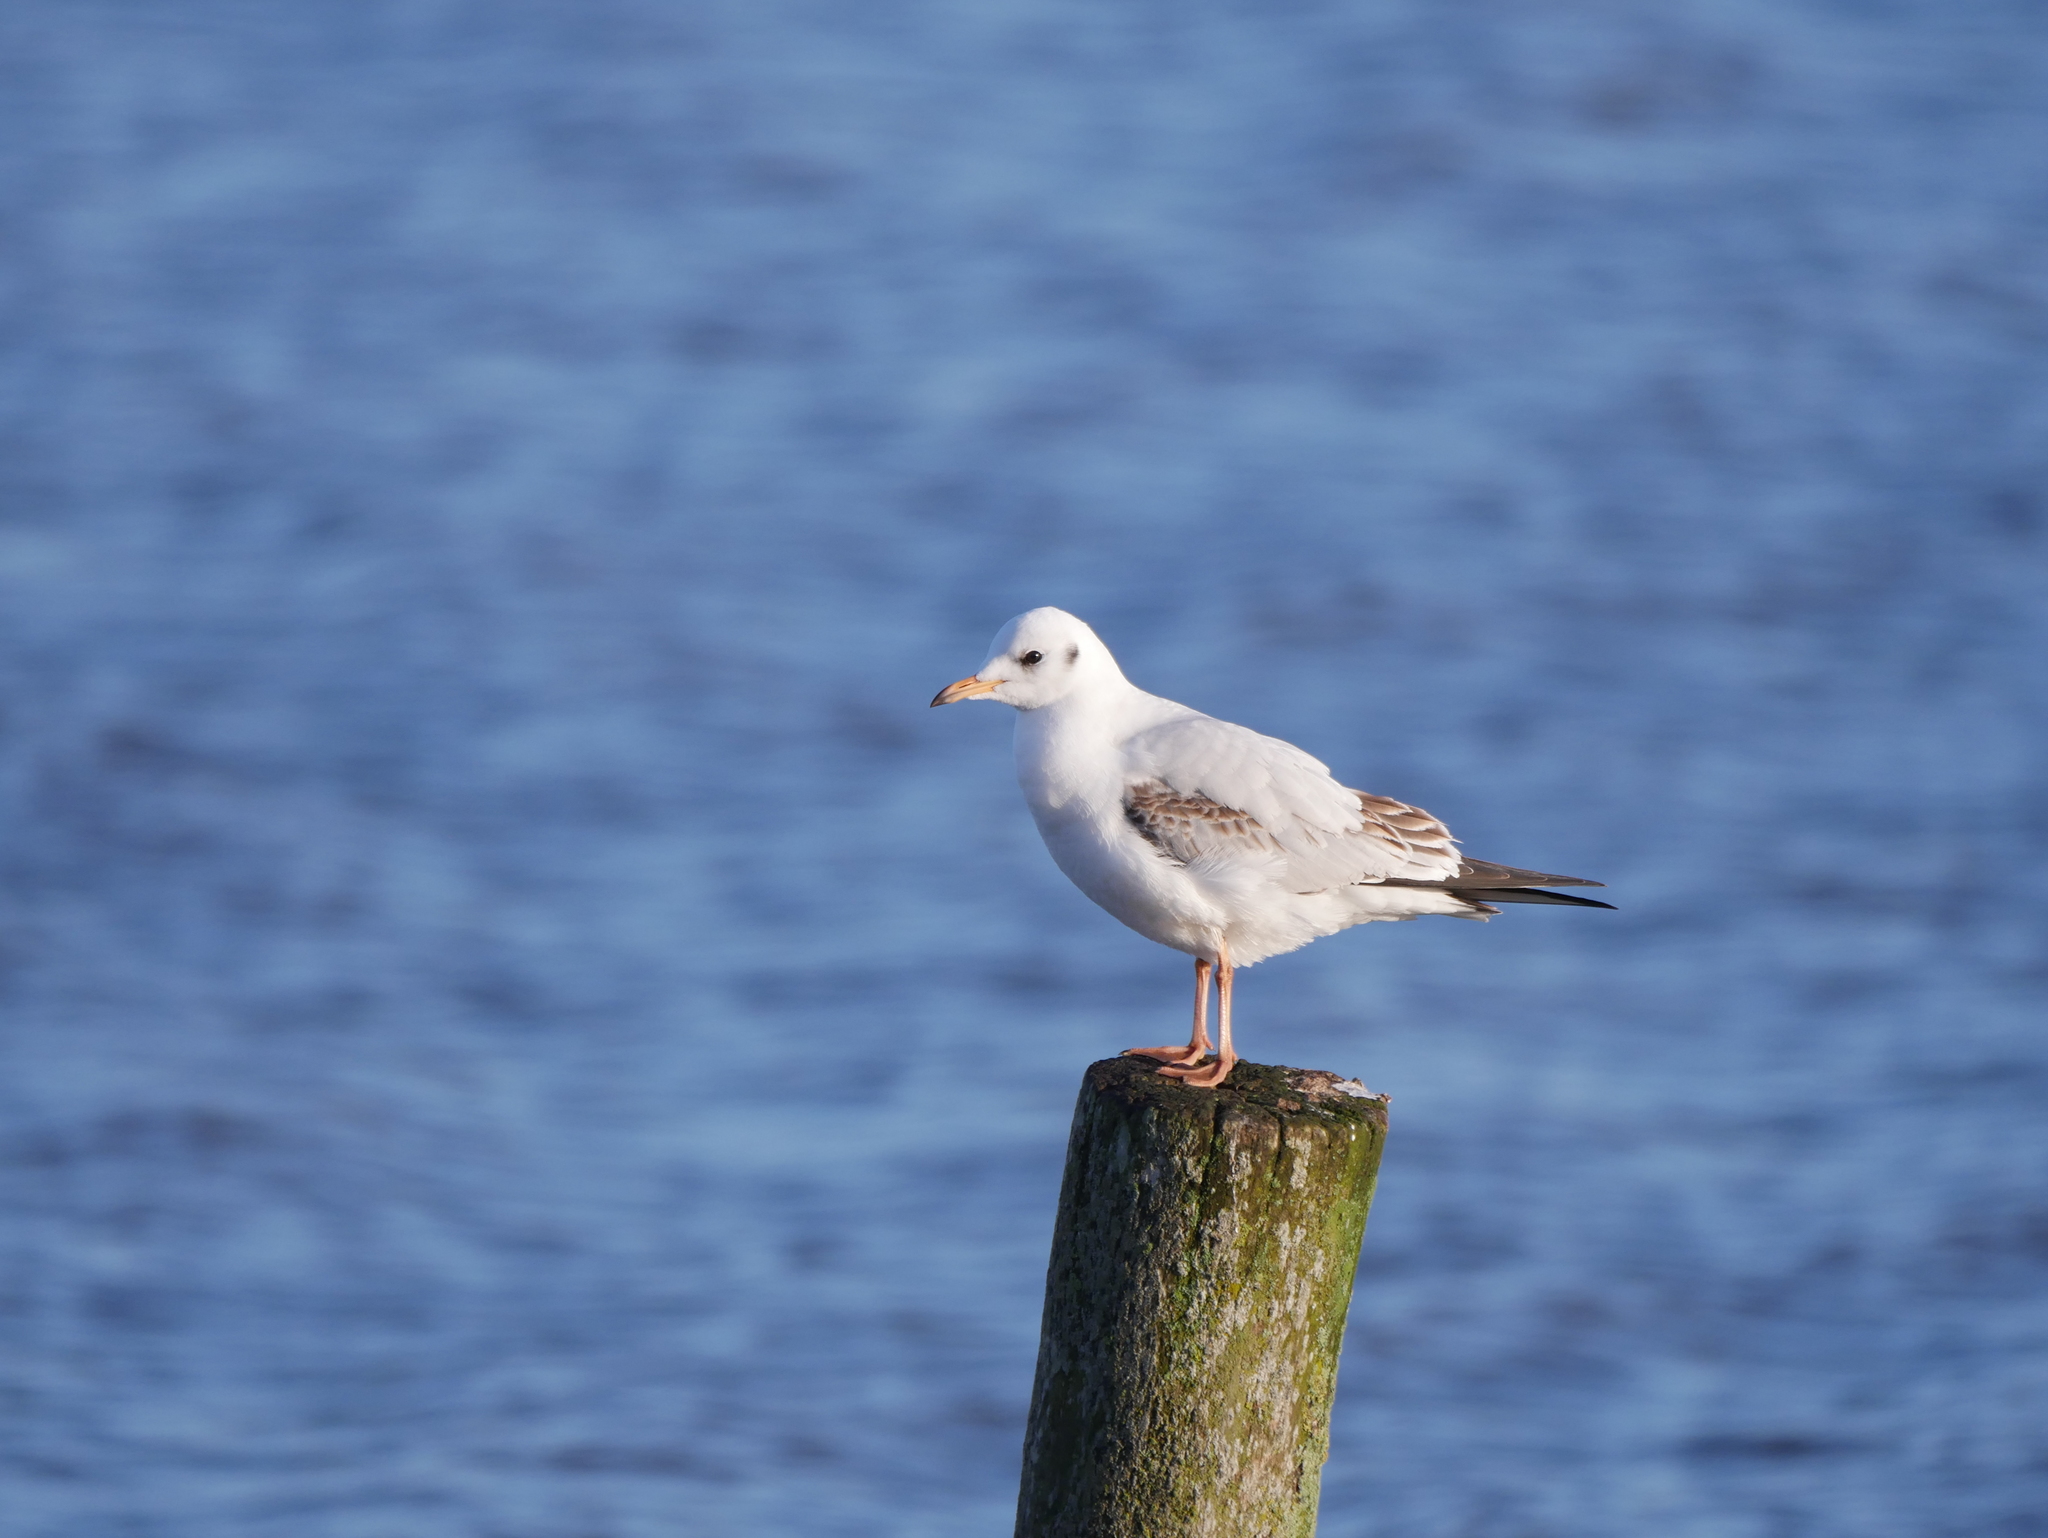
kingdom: Animalia
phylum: Chordata
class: Aves
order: Charadriiformes
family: Laridae
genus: Chroicocephalus
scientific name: Chroicocephalus ridibundus
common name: Black-headed gull
